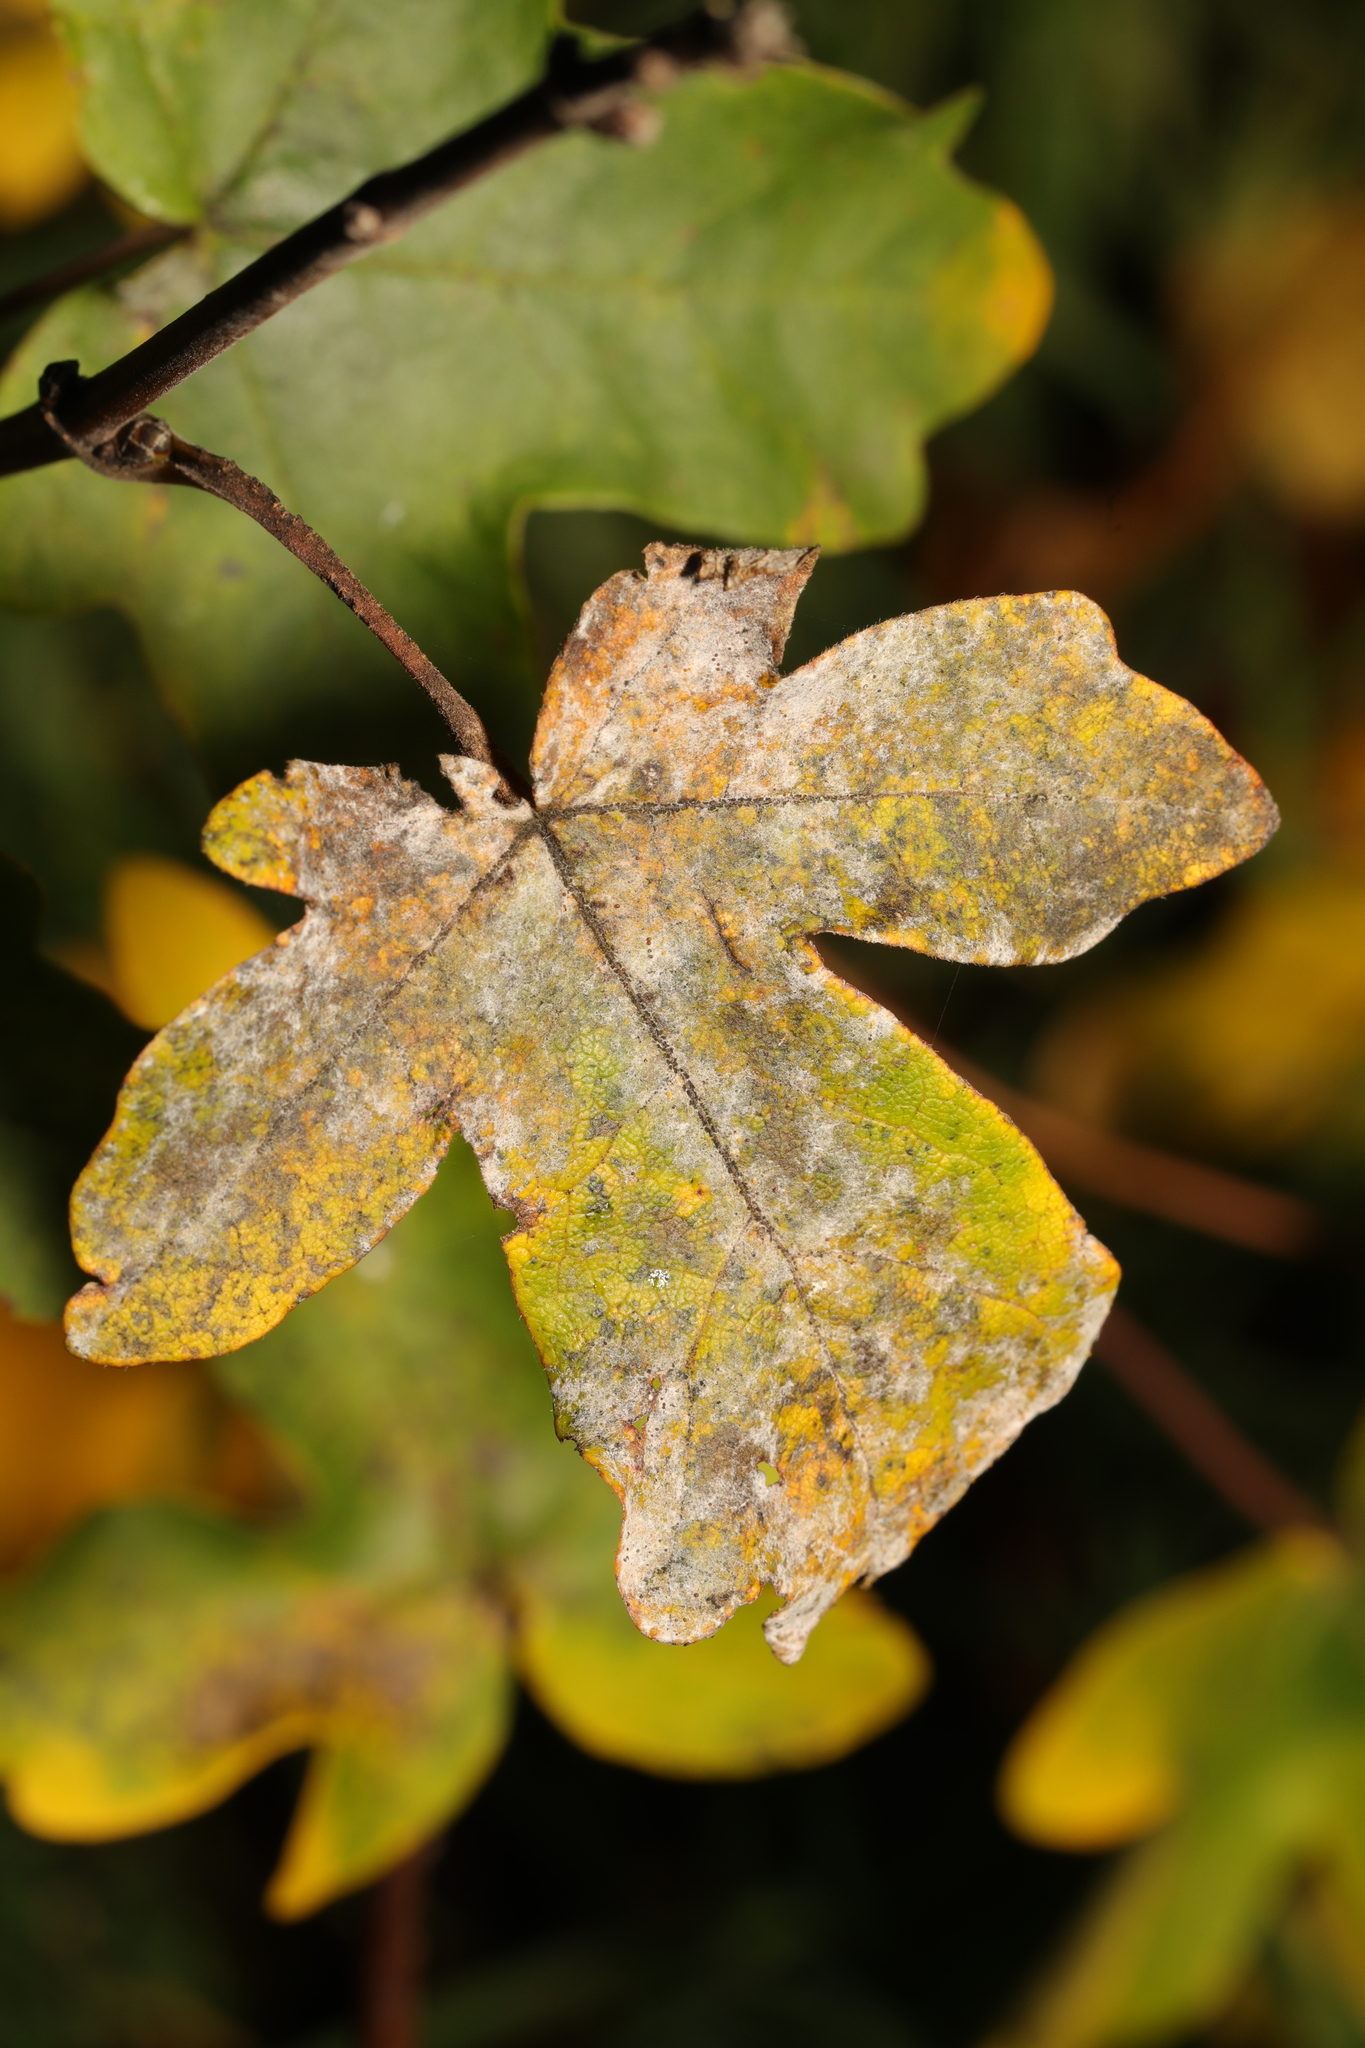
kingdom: Fungi
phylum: Ascomycota
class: Leotiomycetes
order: Helotiales
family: Erysiphaceae
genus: Sawadaea
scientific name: Sawadaea bicornis
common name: Maple mildew
